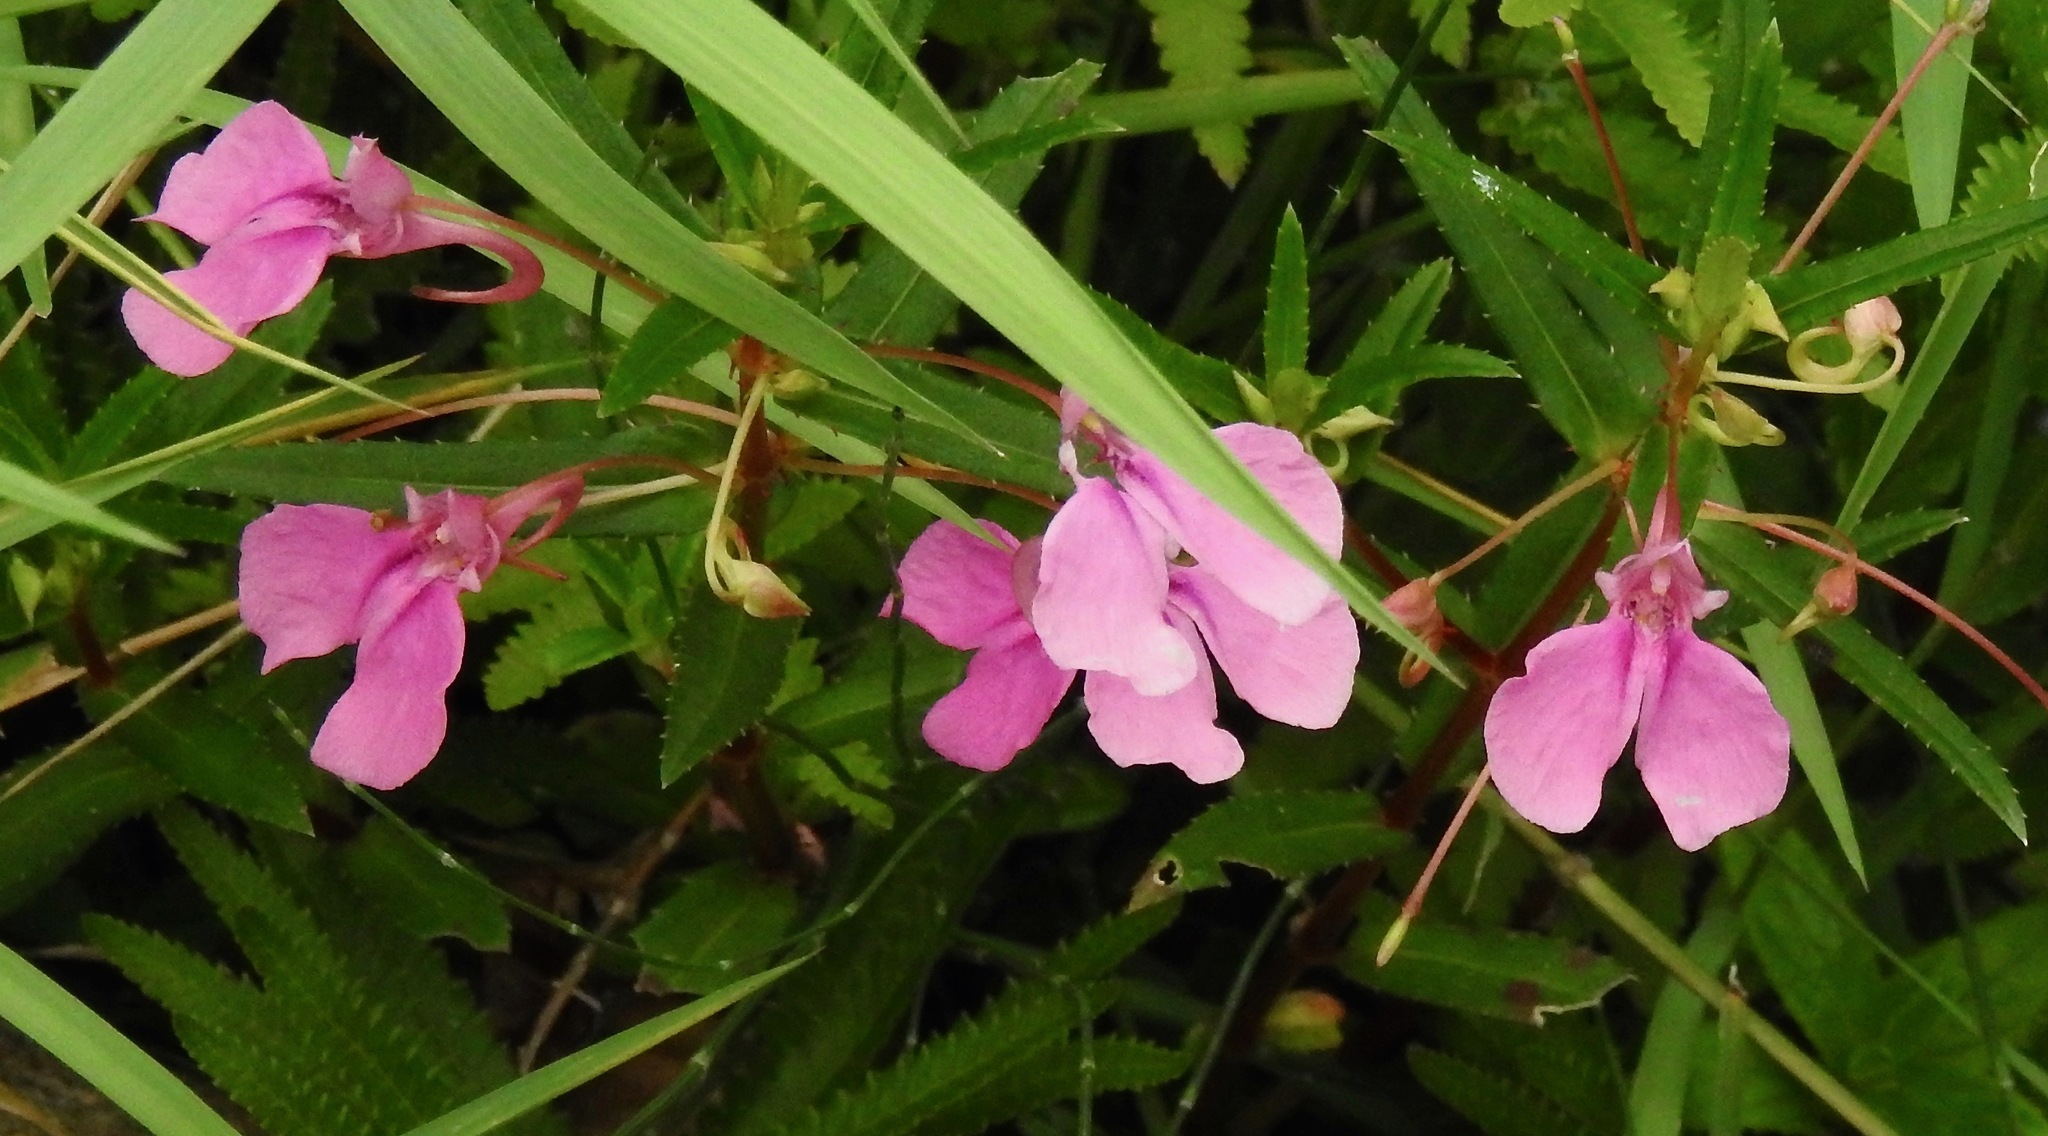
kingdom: Plantae
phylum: Tracheophyta
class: Magnoliopsida
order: Ericales
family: Balsaminaceae
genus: Impatiens
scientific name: Impatiens chinensis
